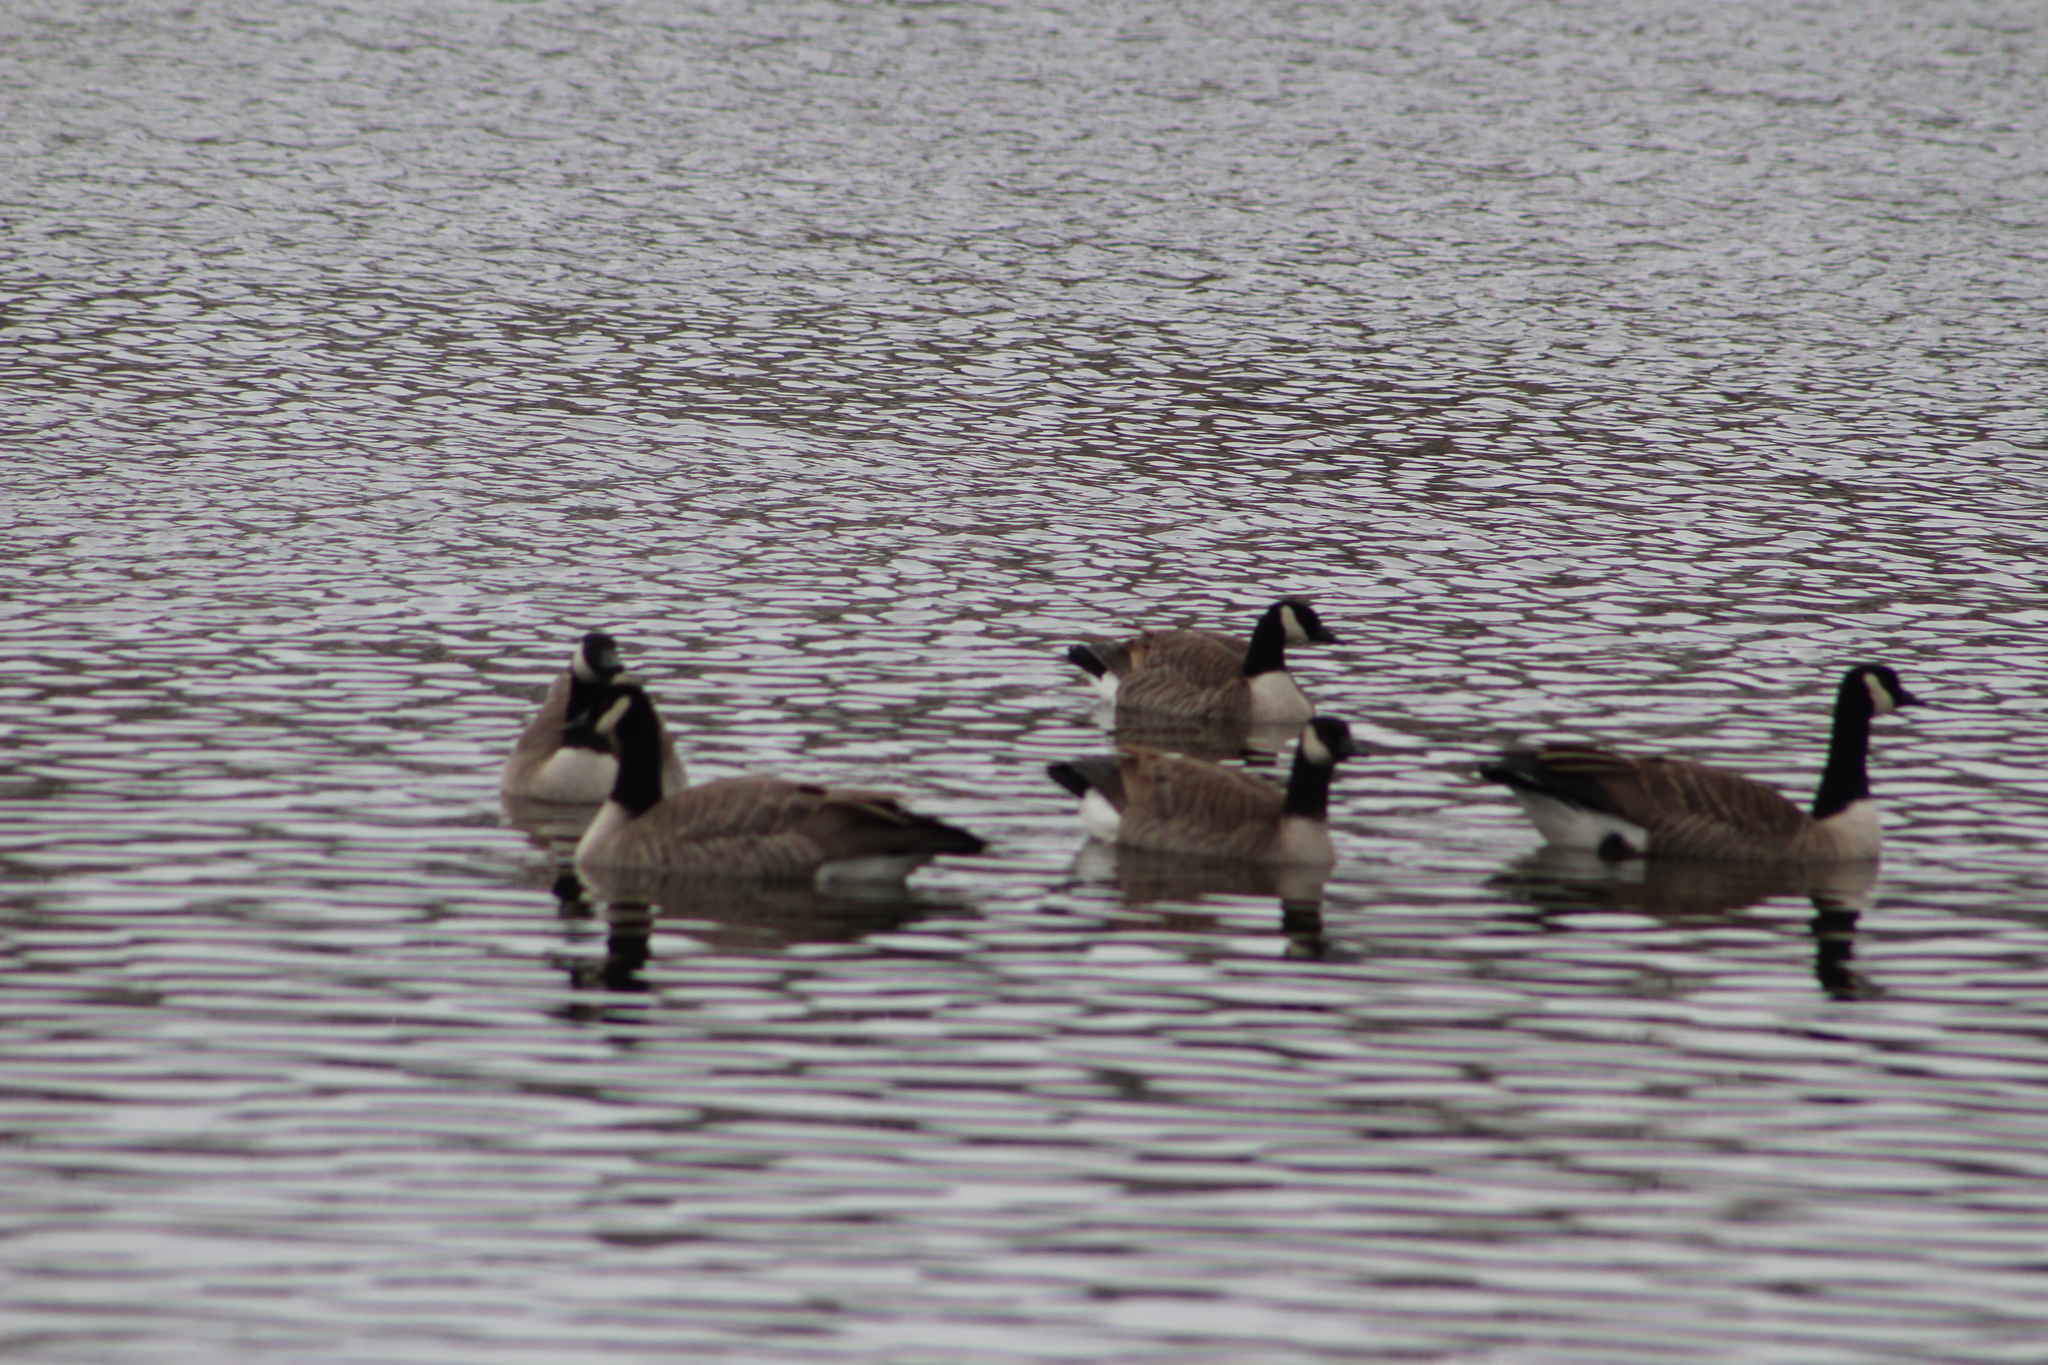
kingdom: Animalia
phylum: Chordata
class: Aves
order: Anseriformes
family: Anatidae
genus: Branta
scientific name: Branta canadensis
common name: Canada goose
